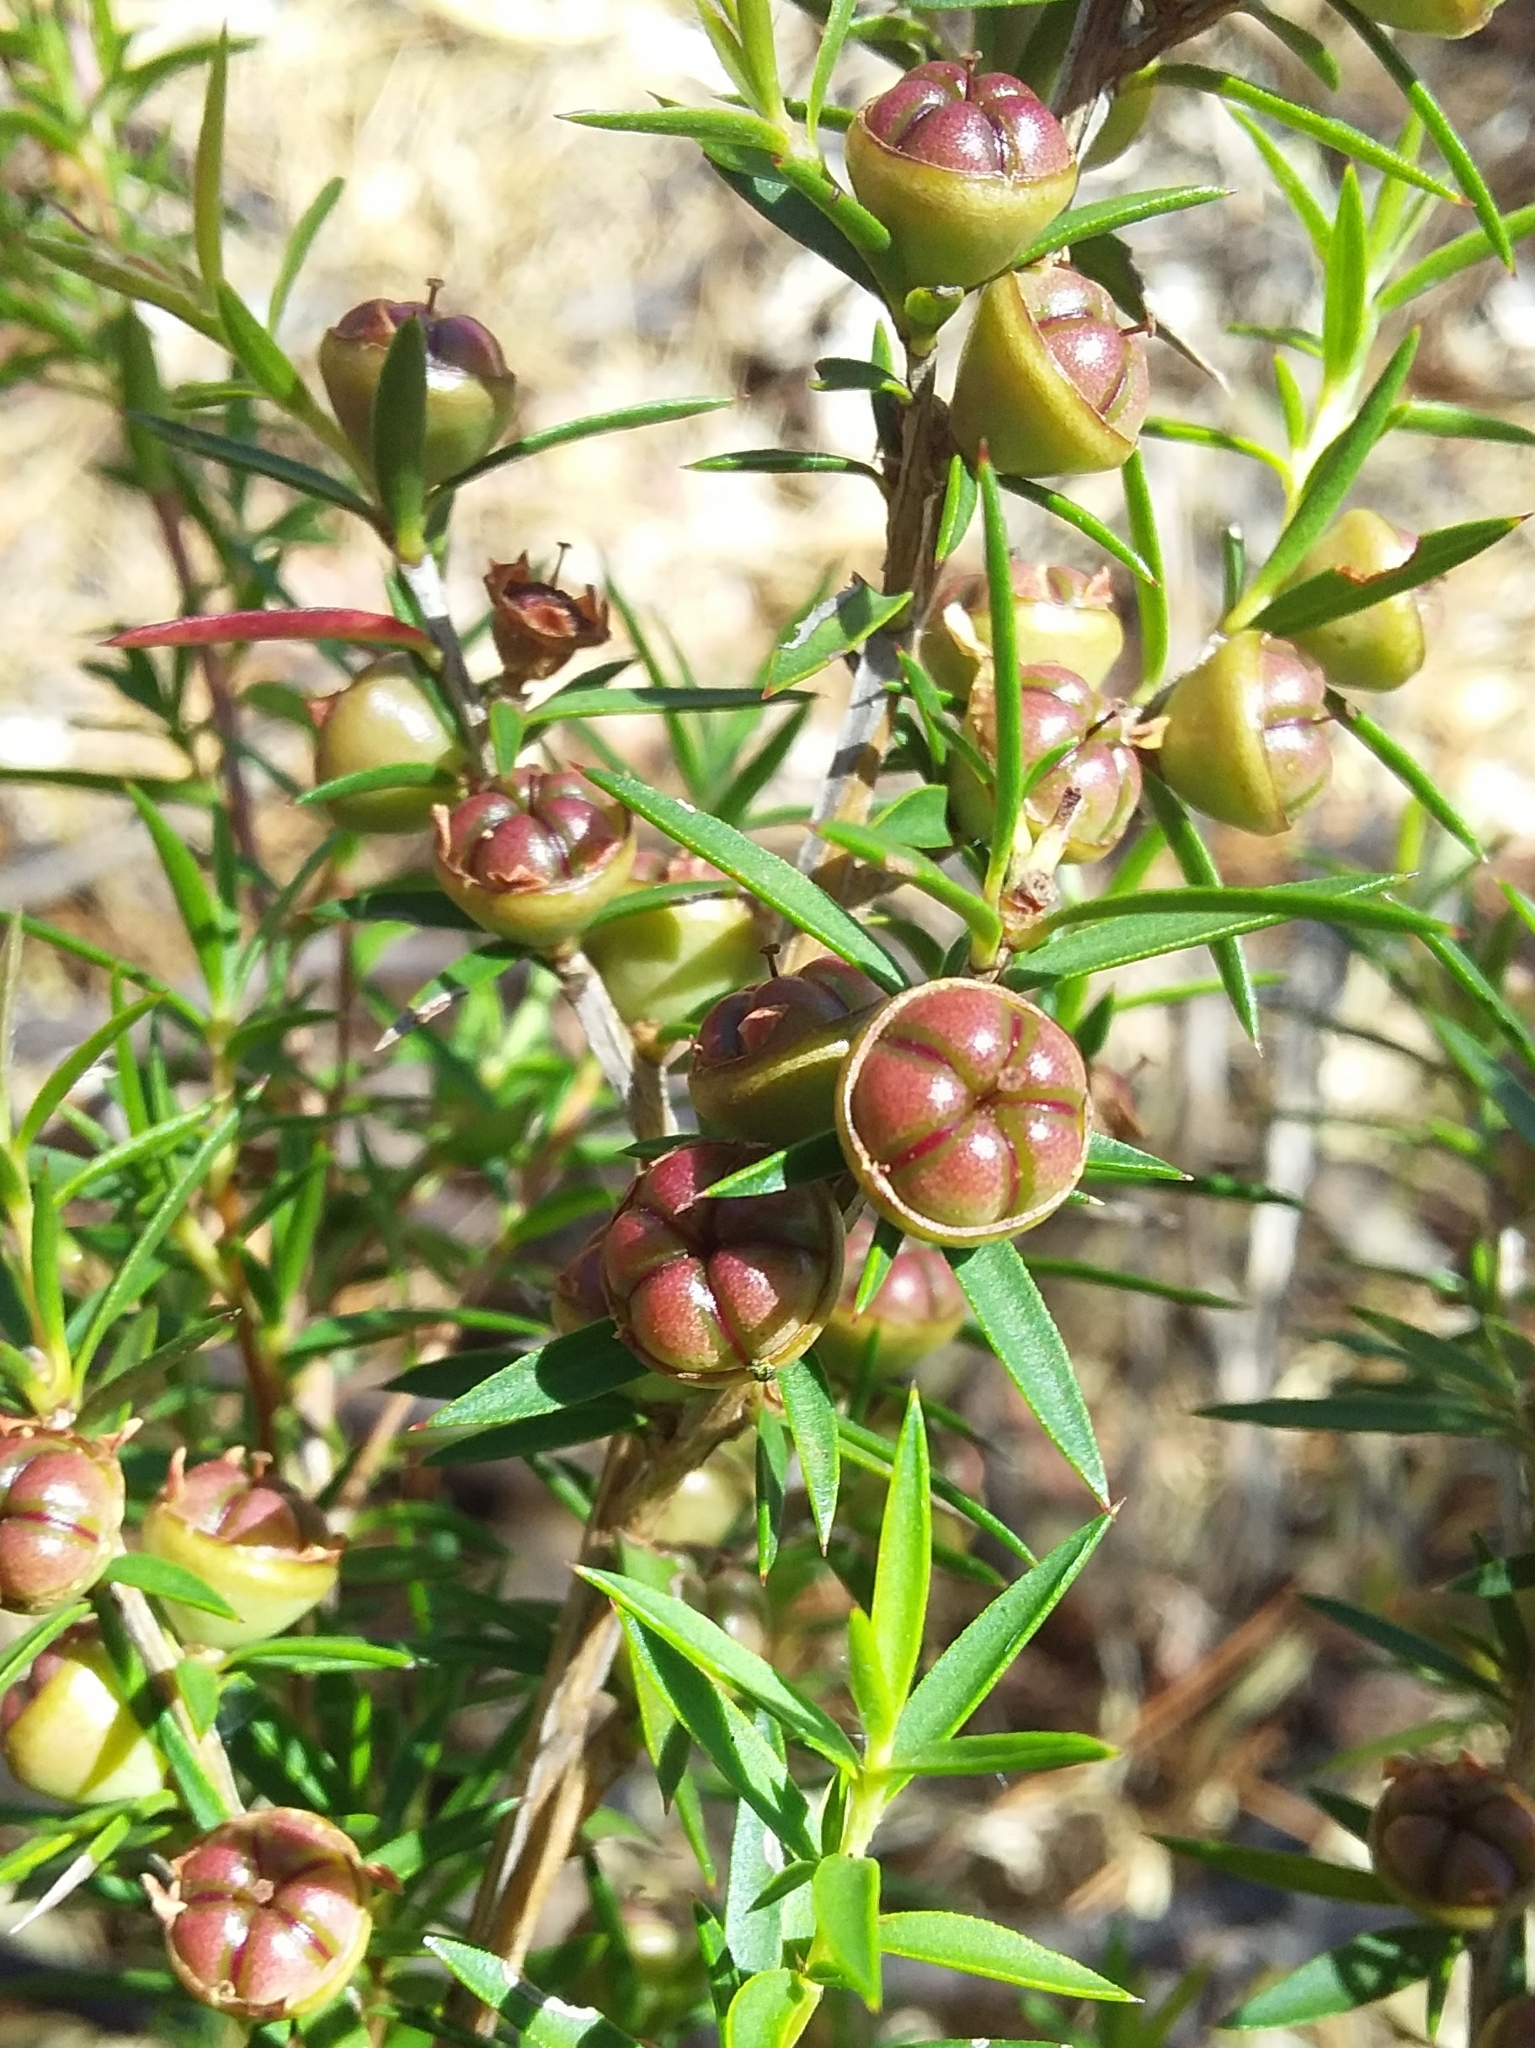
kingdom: Plantae
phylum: Tracheophyta
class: Magnoliopsida
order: Myrtales
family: Myrtaceae
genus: Leptospermum
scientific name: Leptospermum continentale
